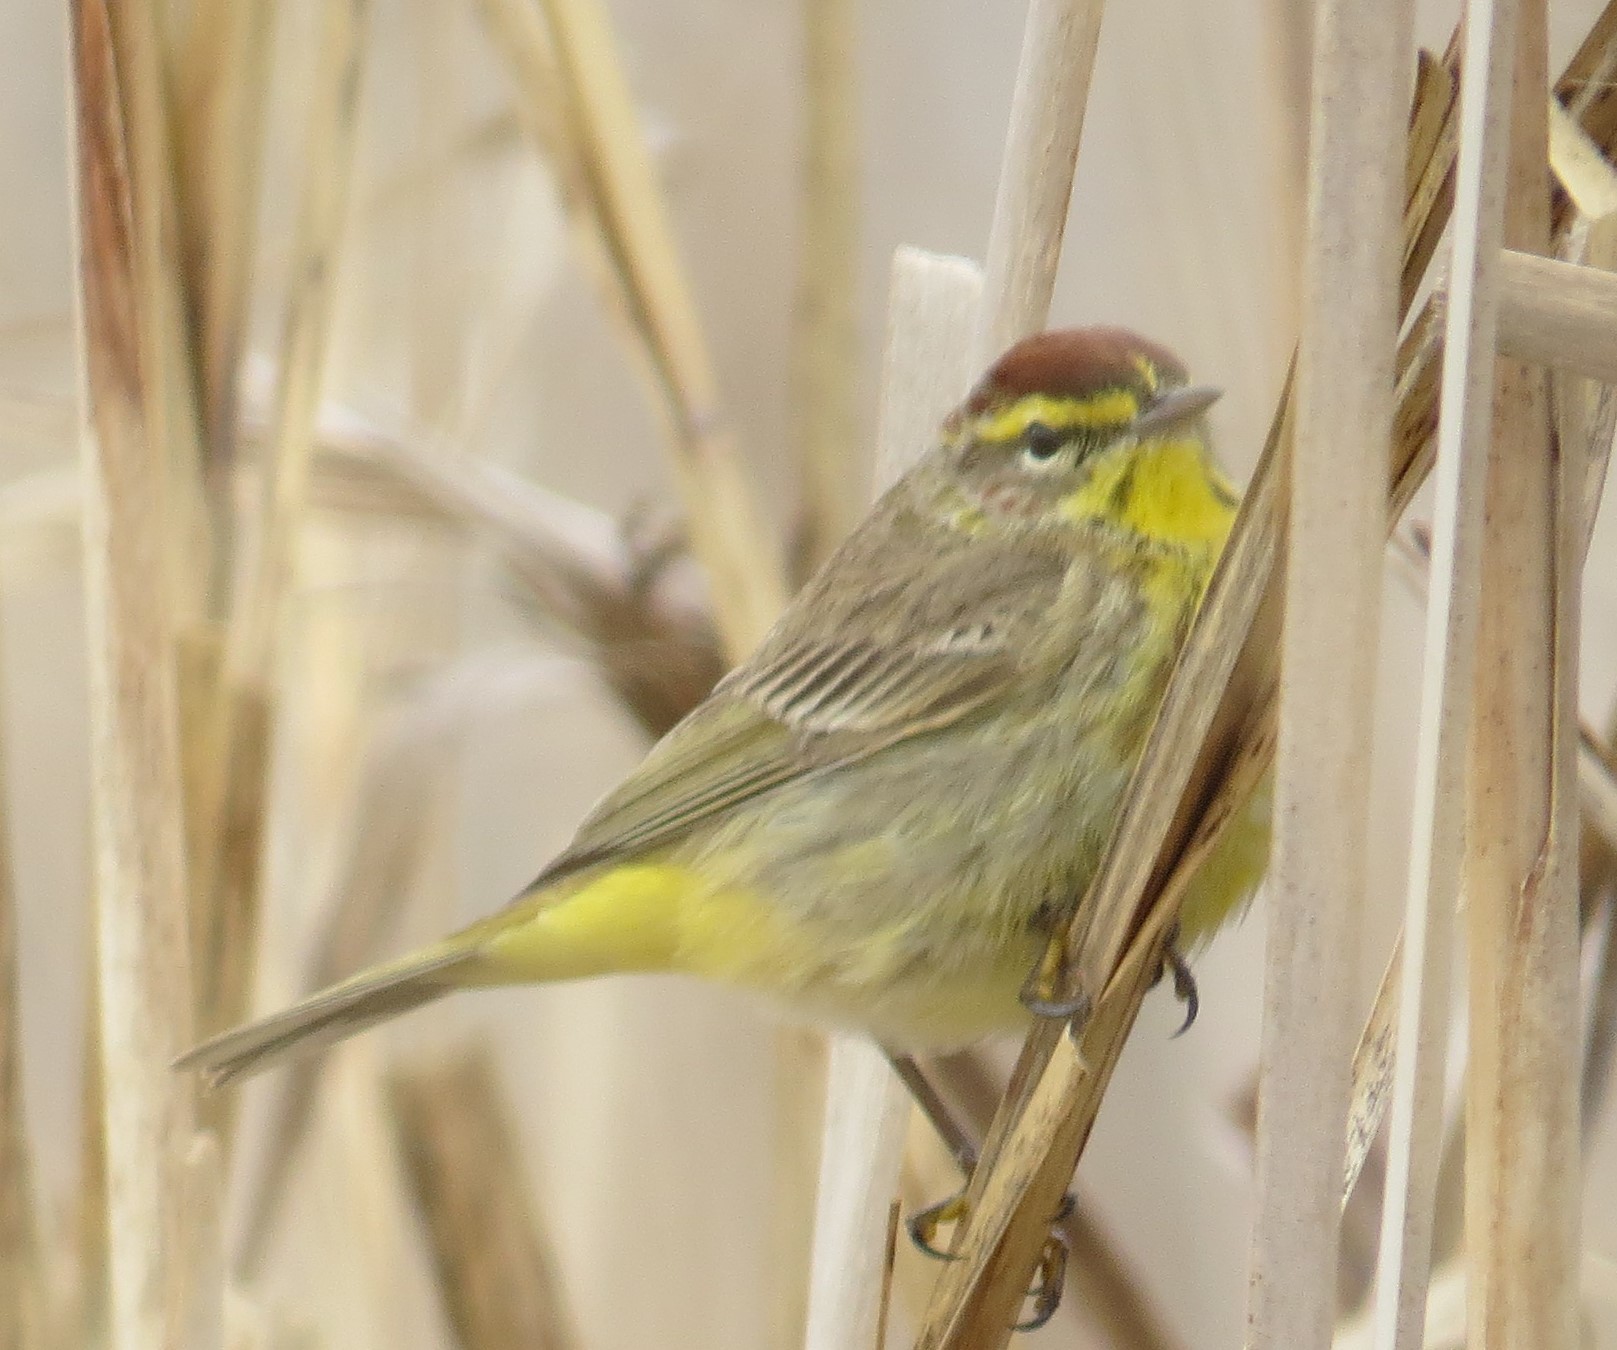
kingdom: Animalia
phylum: Chordata
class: Aves
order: Passeriformes
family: Parulidae
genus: Setophaga
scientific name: Setophaga palmarum
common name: Palm warbler
